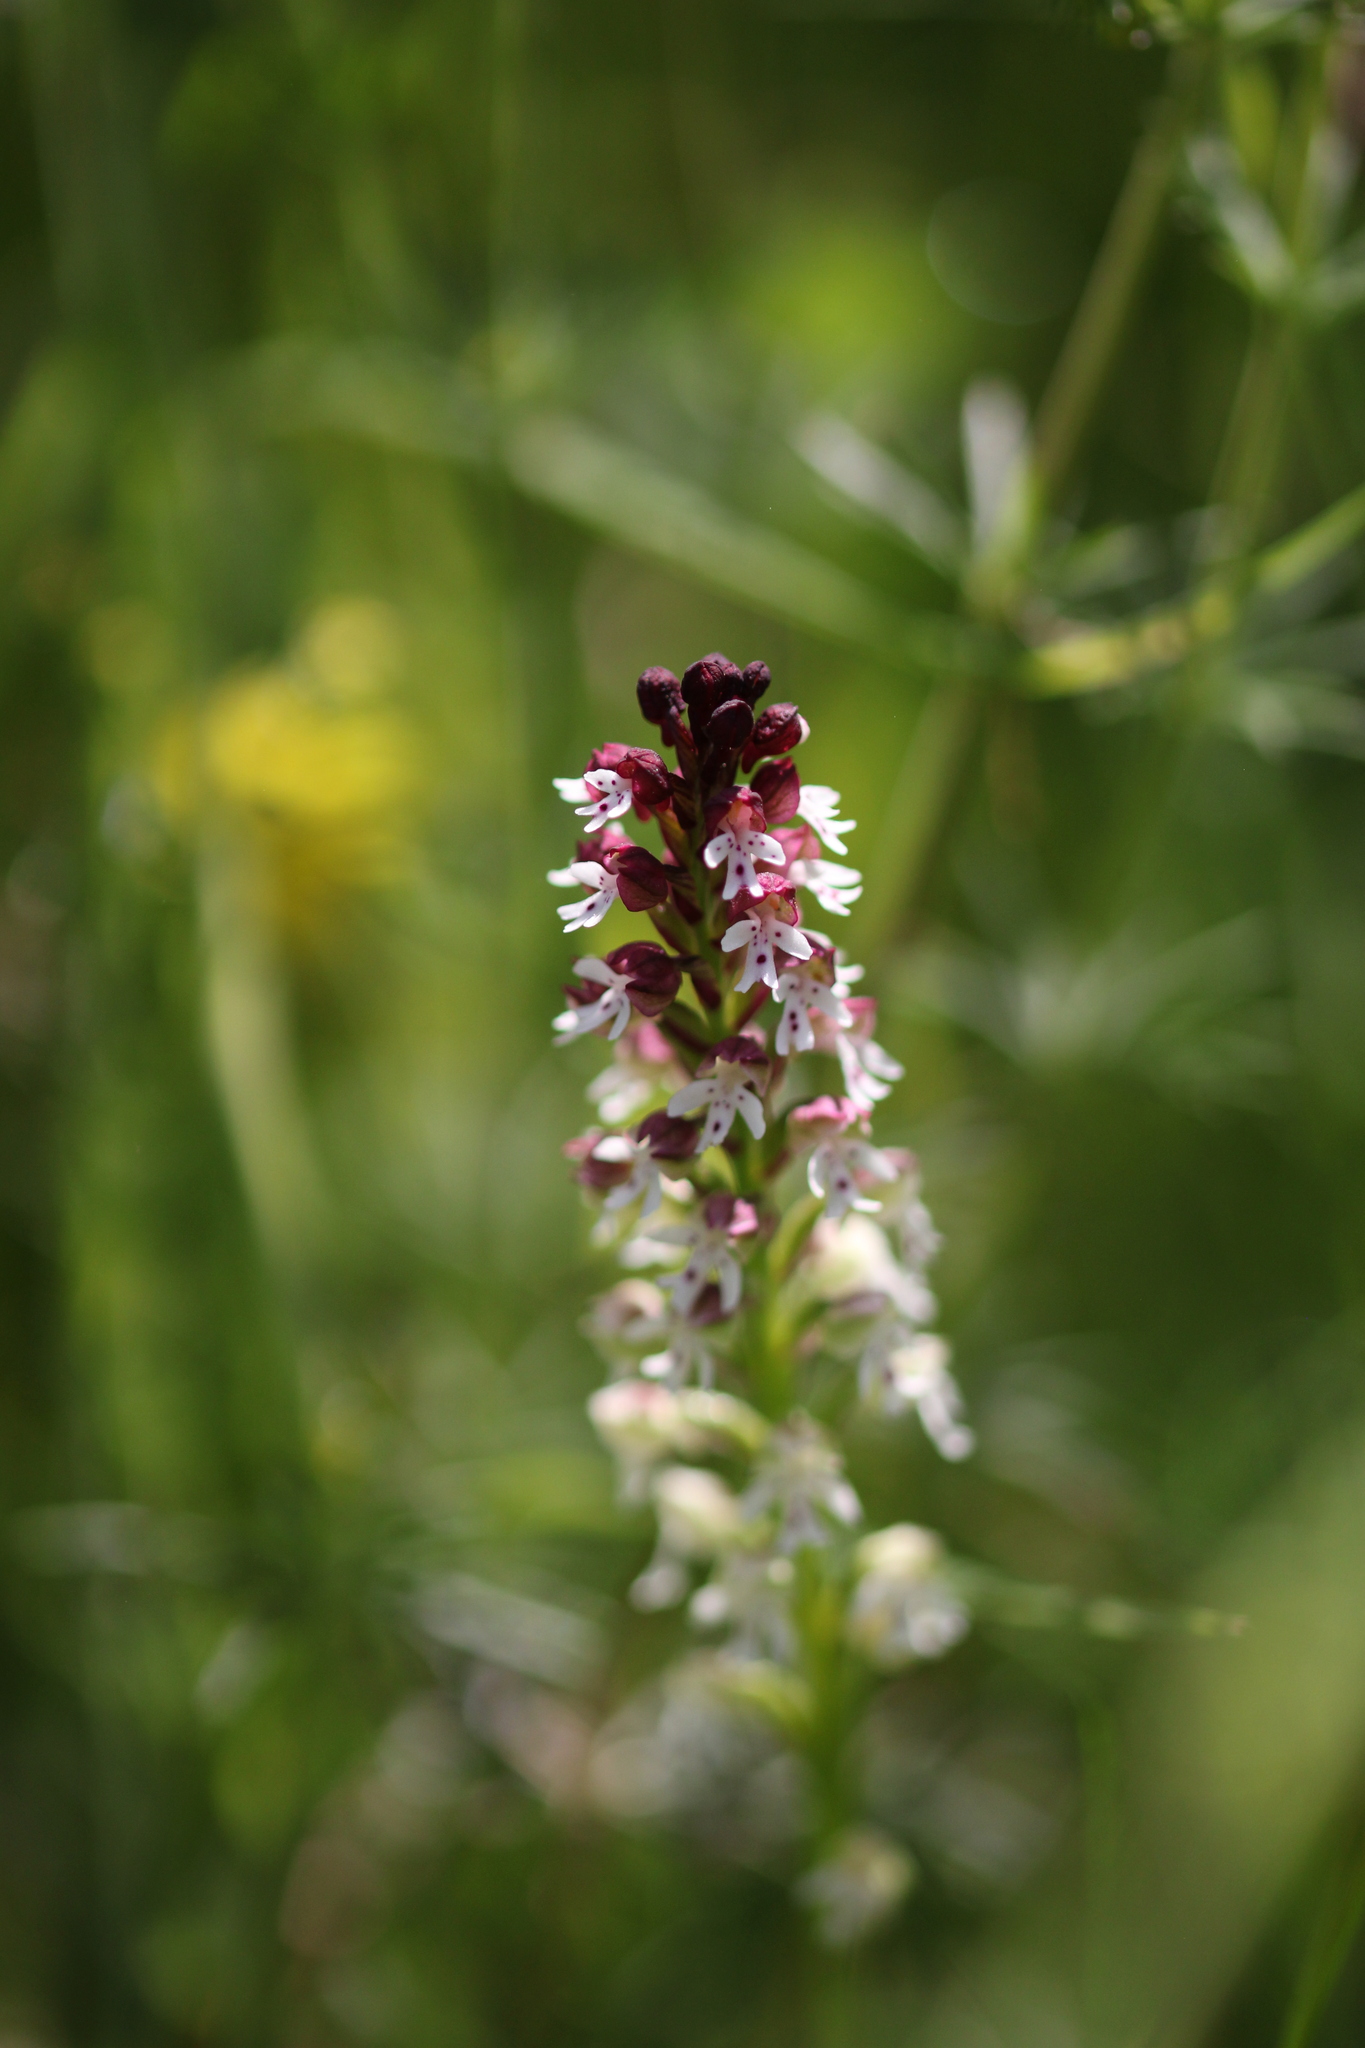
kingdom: Plantae
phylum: Tracheophyta
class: Liliopsida
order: Asparagales
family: Orchidaceae
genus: Neotinea
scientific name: Neotinea ustulata
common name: Burnt orchid
